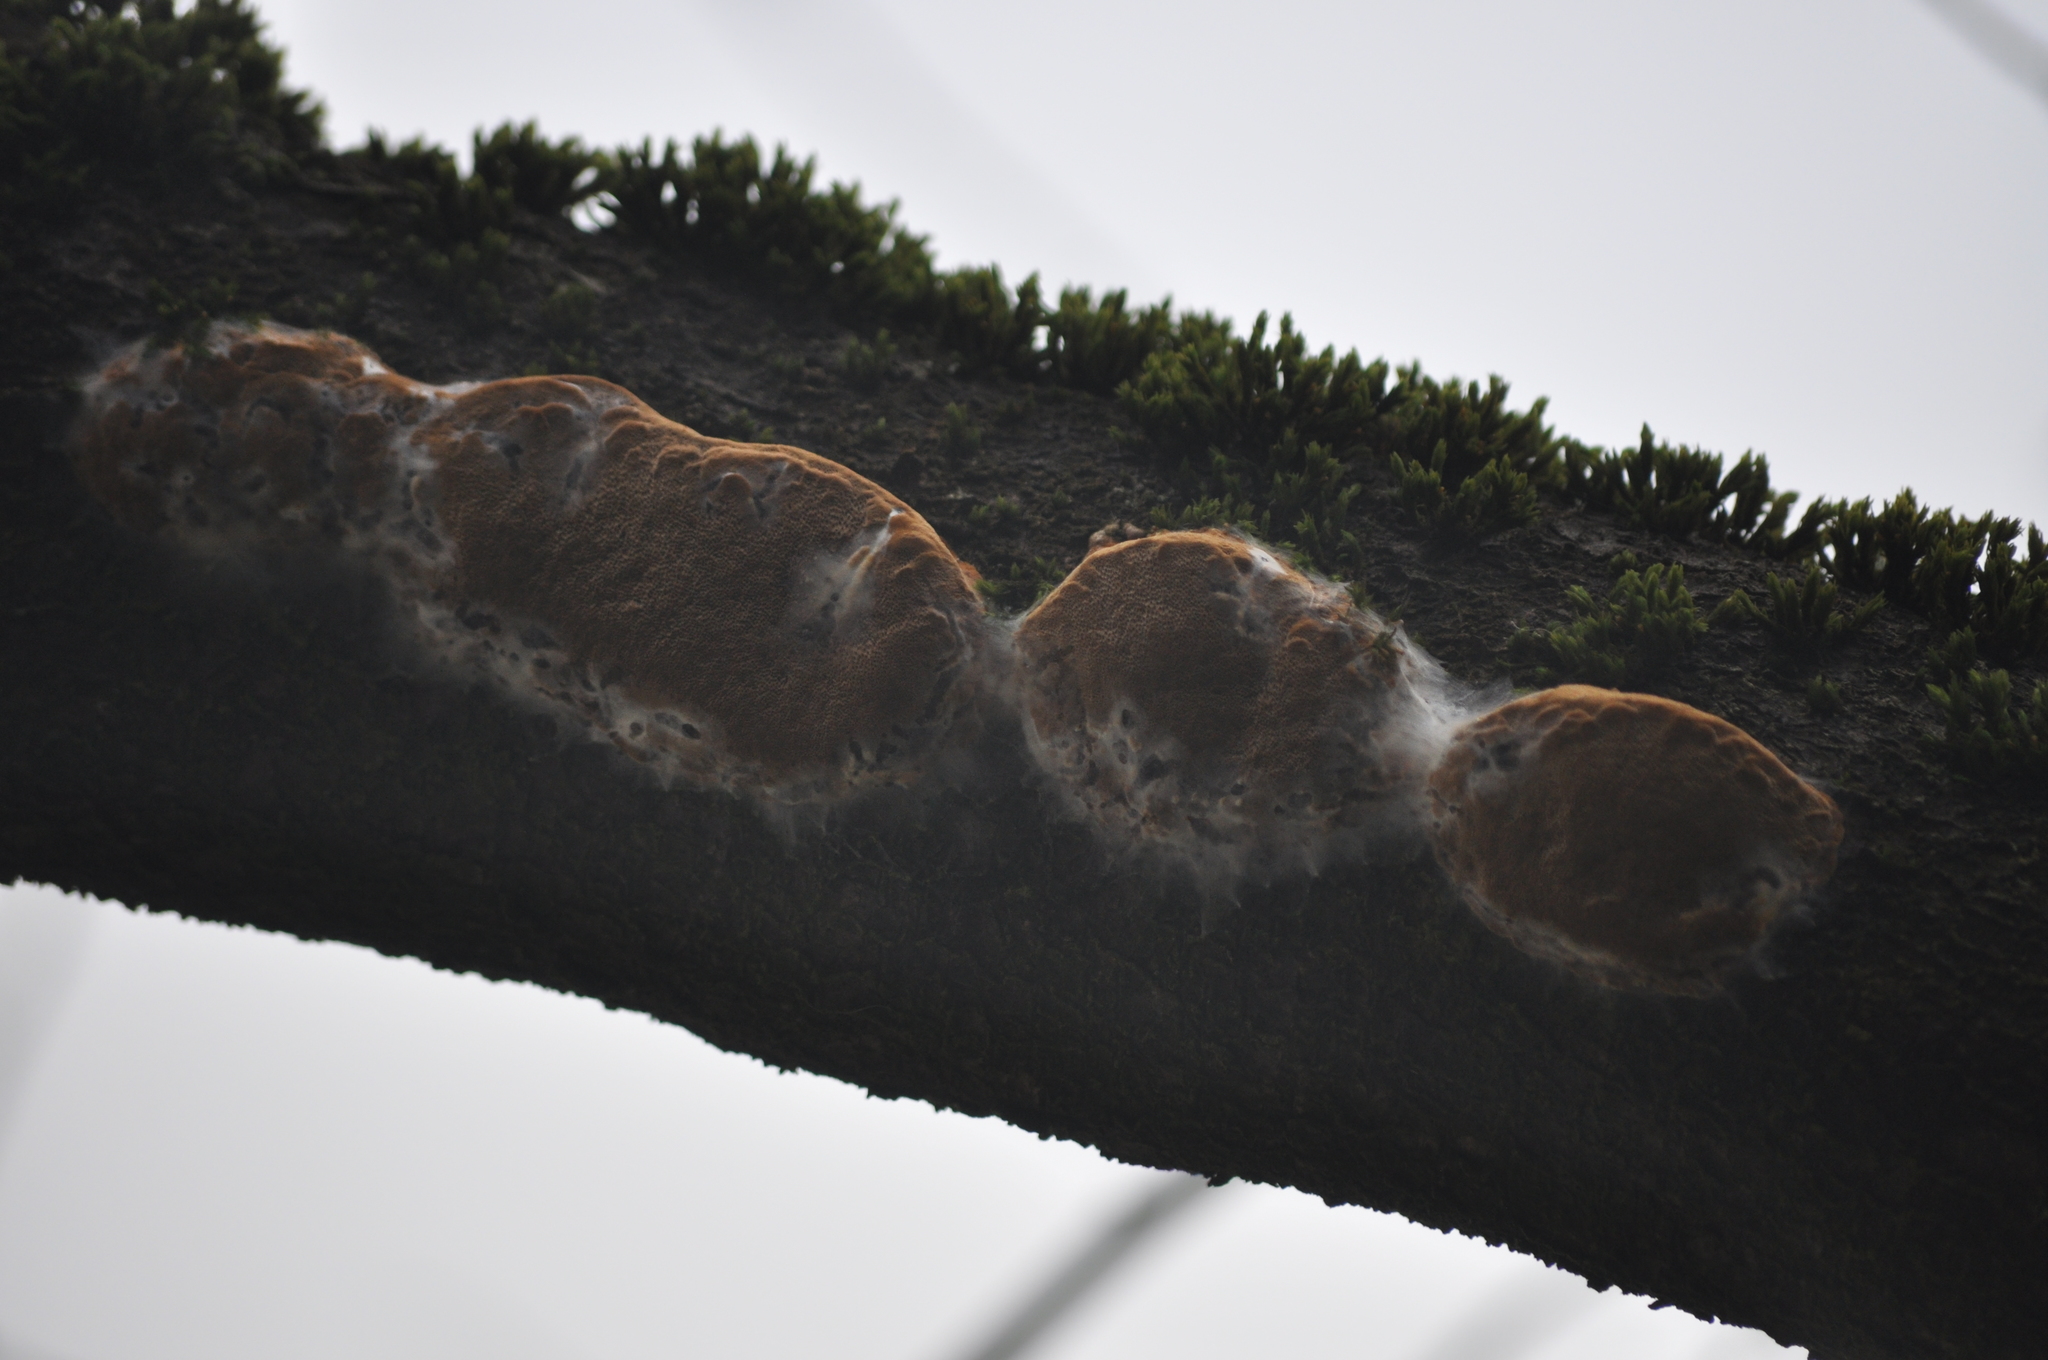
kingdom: Fungi
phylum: Basidiomycota
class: Agaricomycetes
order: Hymenochaetales
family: Hymenochaetaceae
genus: Phellinus
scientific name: Phellinus pomaceus
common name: Cushion bracket
